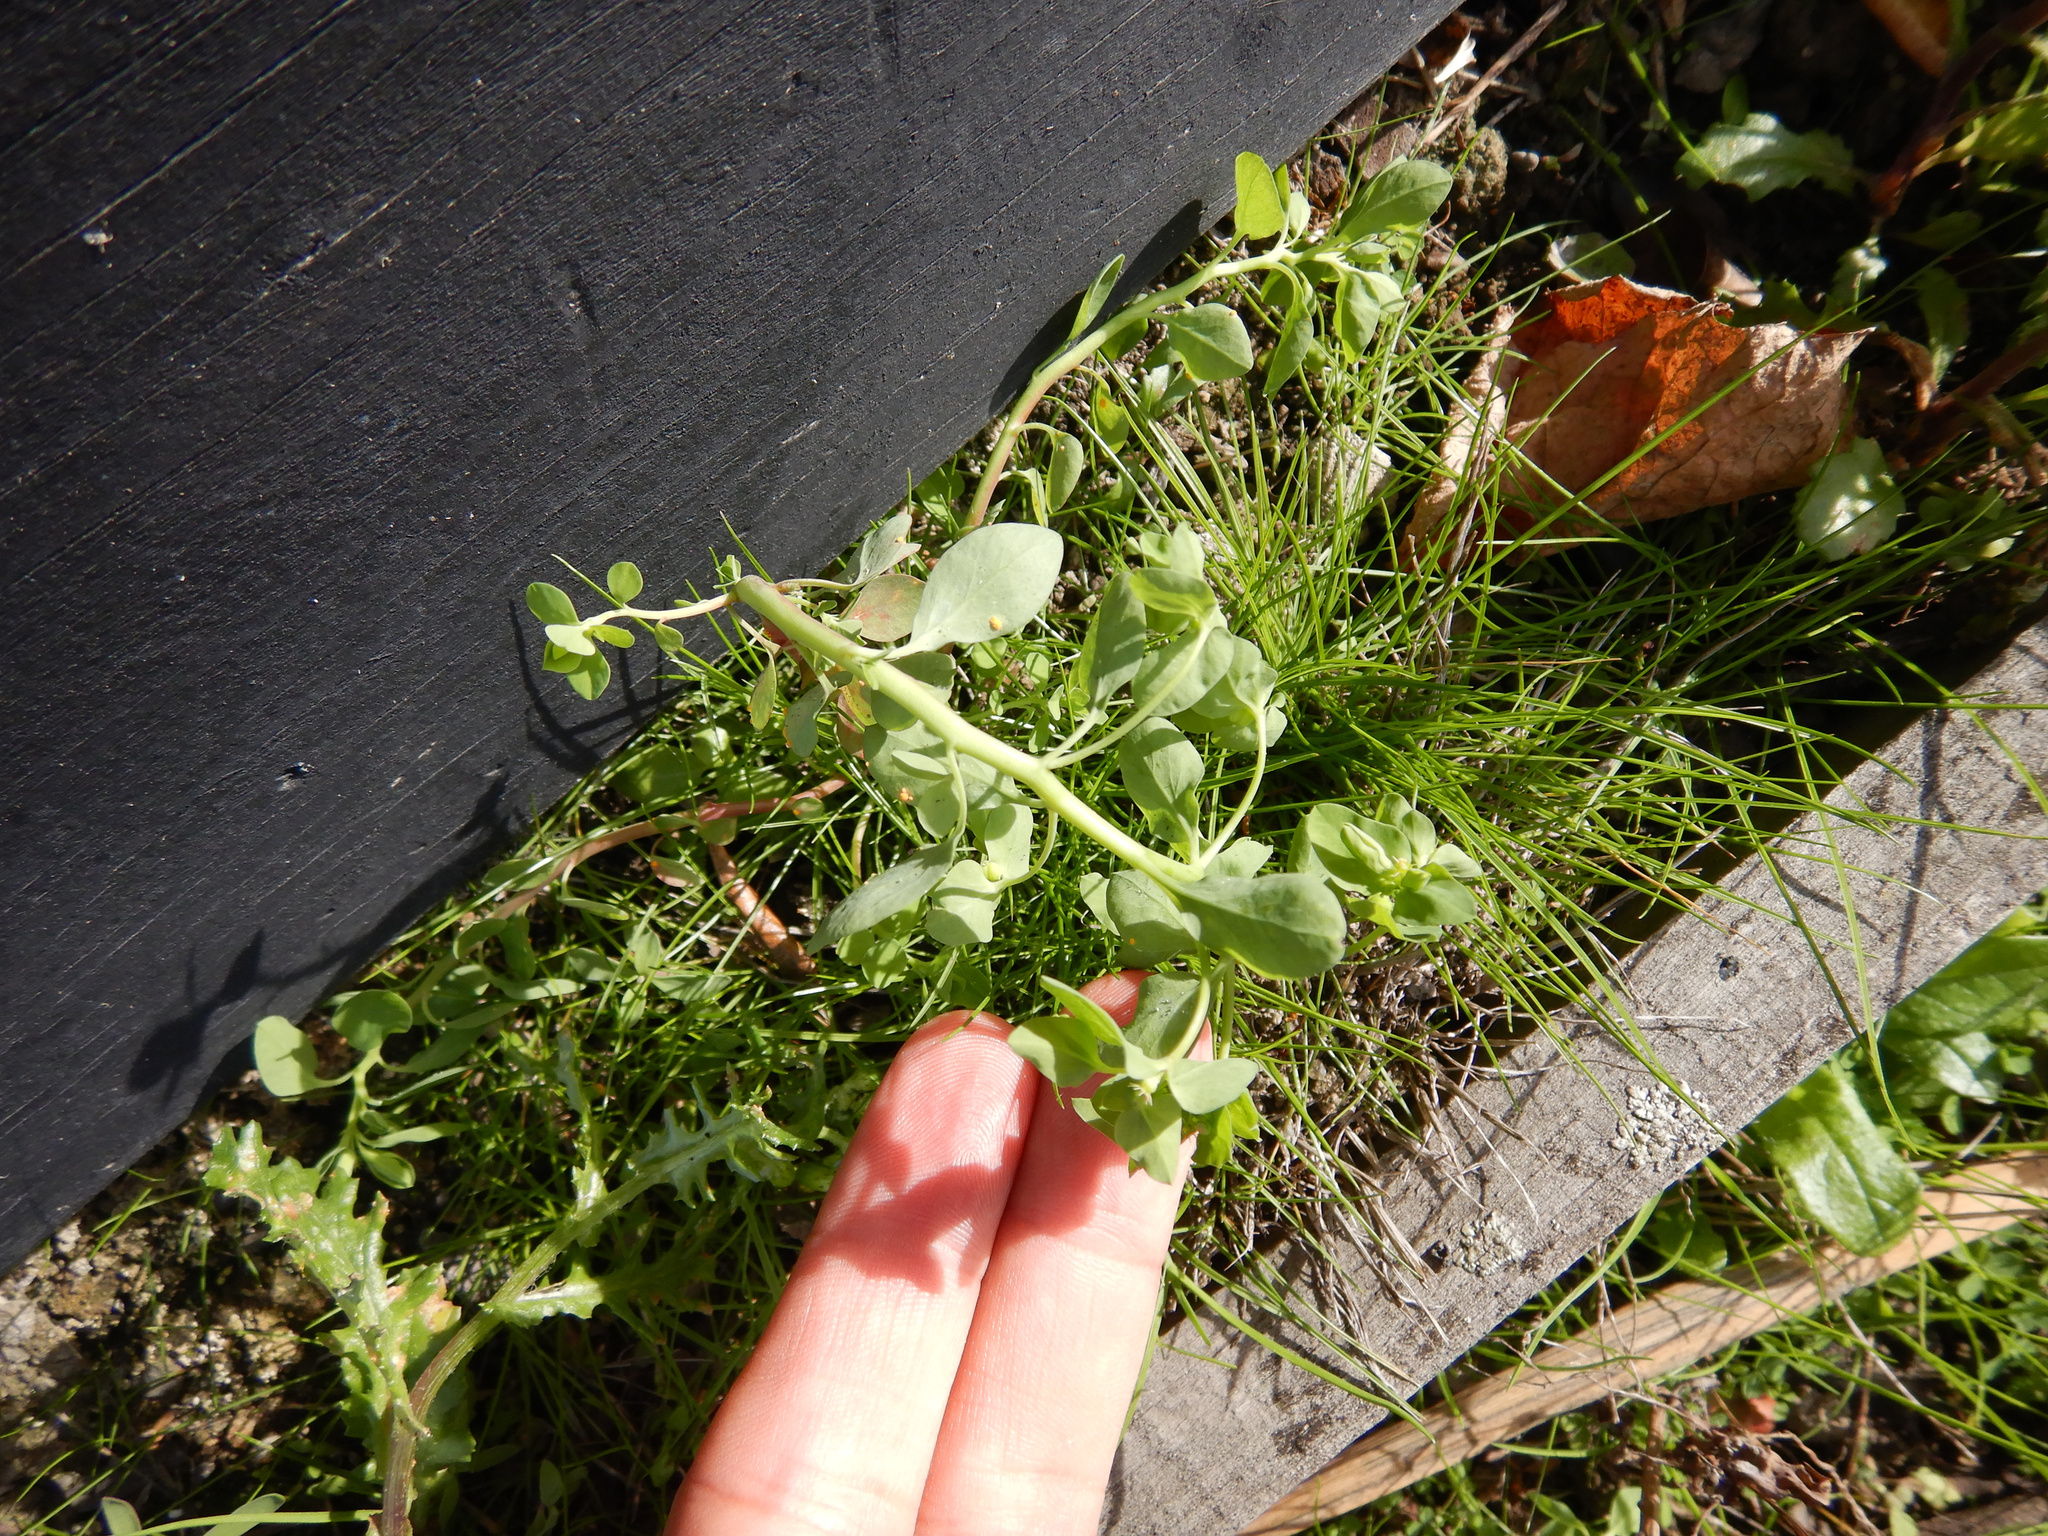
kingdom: Plantae
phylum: Tracheophyta
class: Magnoliopsida
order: Malpighiales
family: Euphorbiaceae
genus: Euphorbia
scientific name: Euphorbia peplus
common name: Petty spurge
